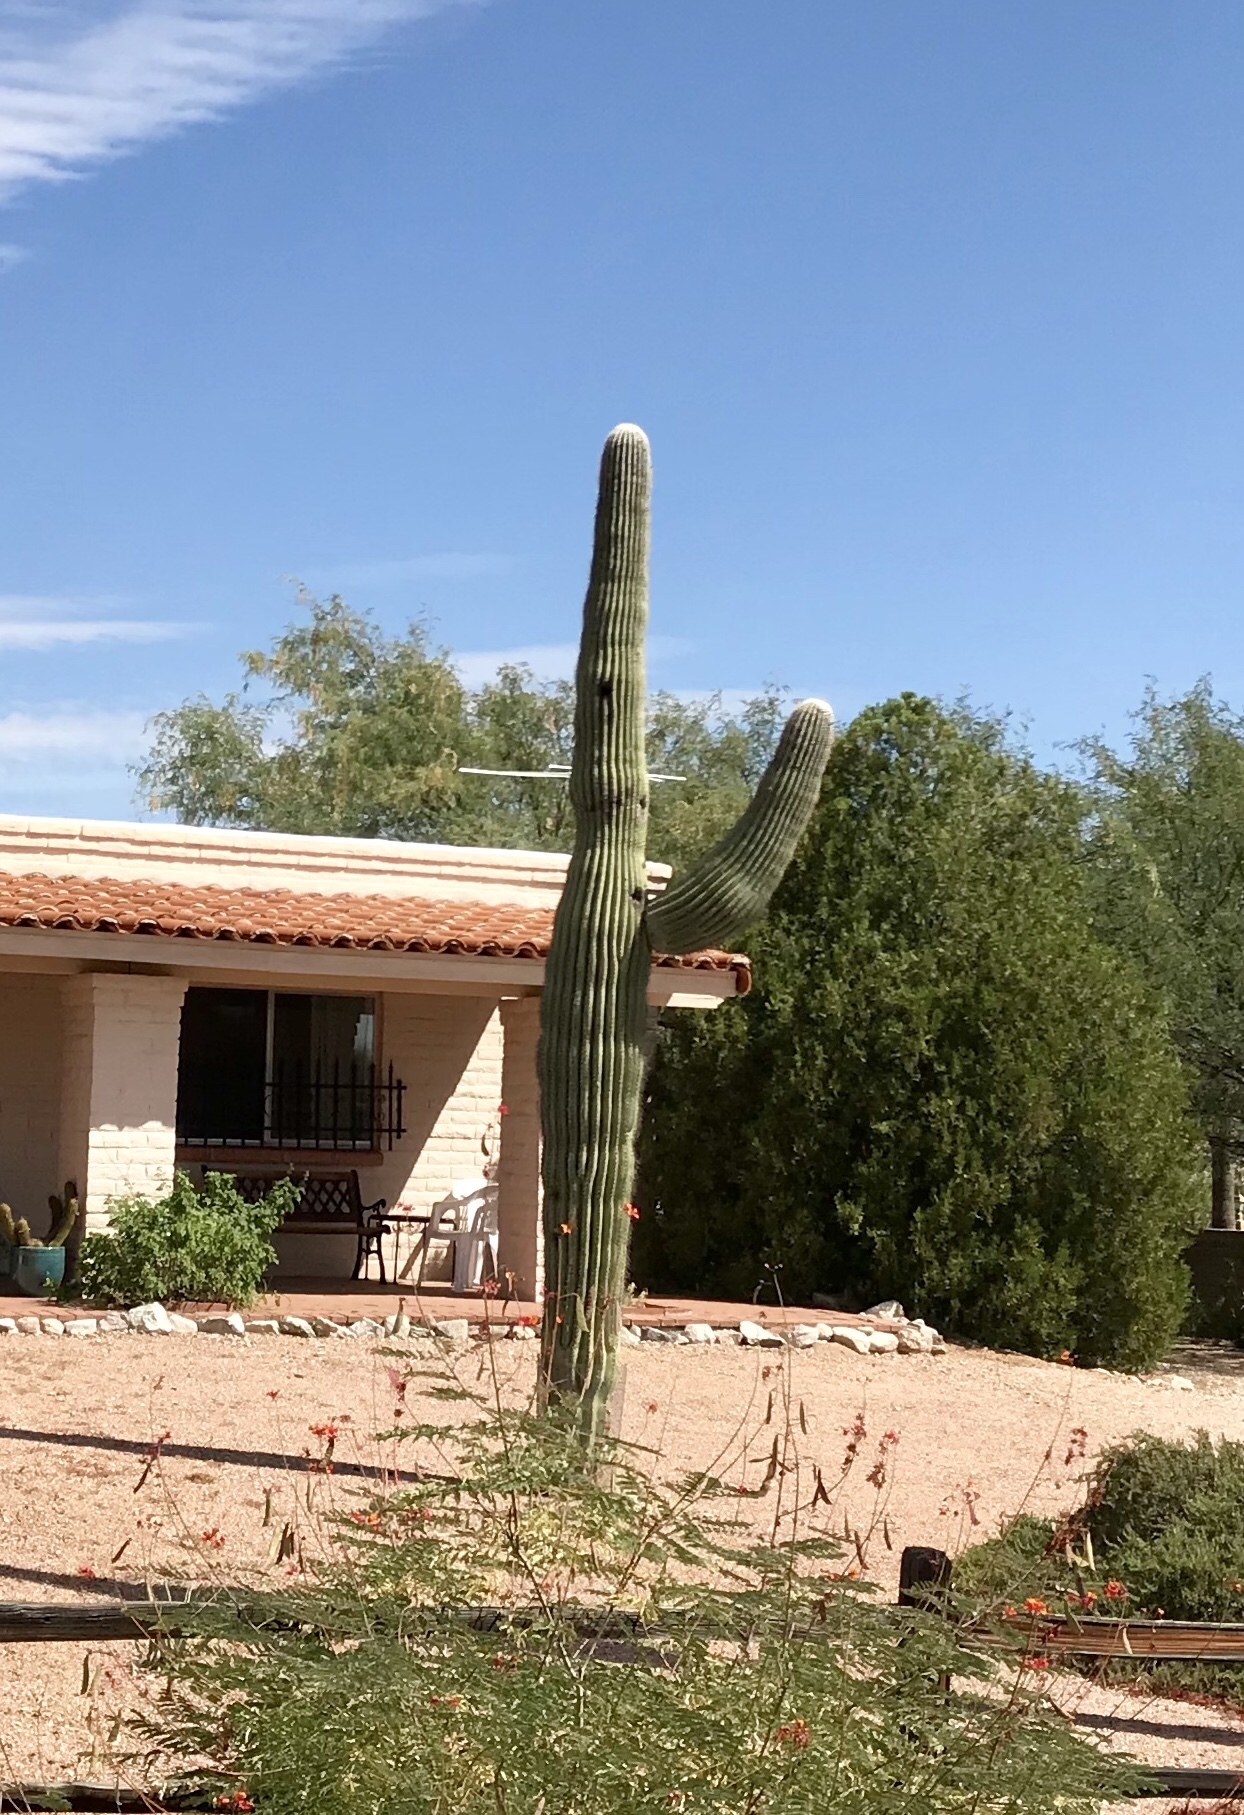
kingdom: Plantae
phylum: Tracheophyta
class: Magnoliopsida
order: Caryophyllales
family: Cactaceae
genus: Carnegiea
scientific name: Carnegiea gigantea
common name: Saguaro
